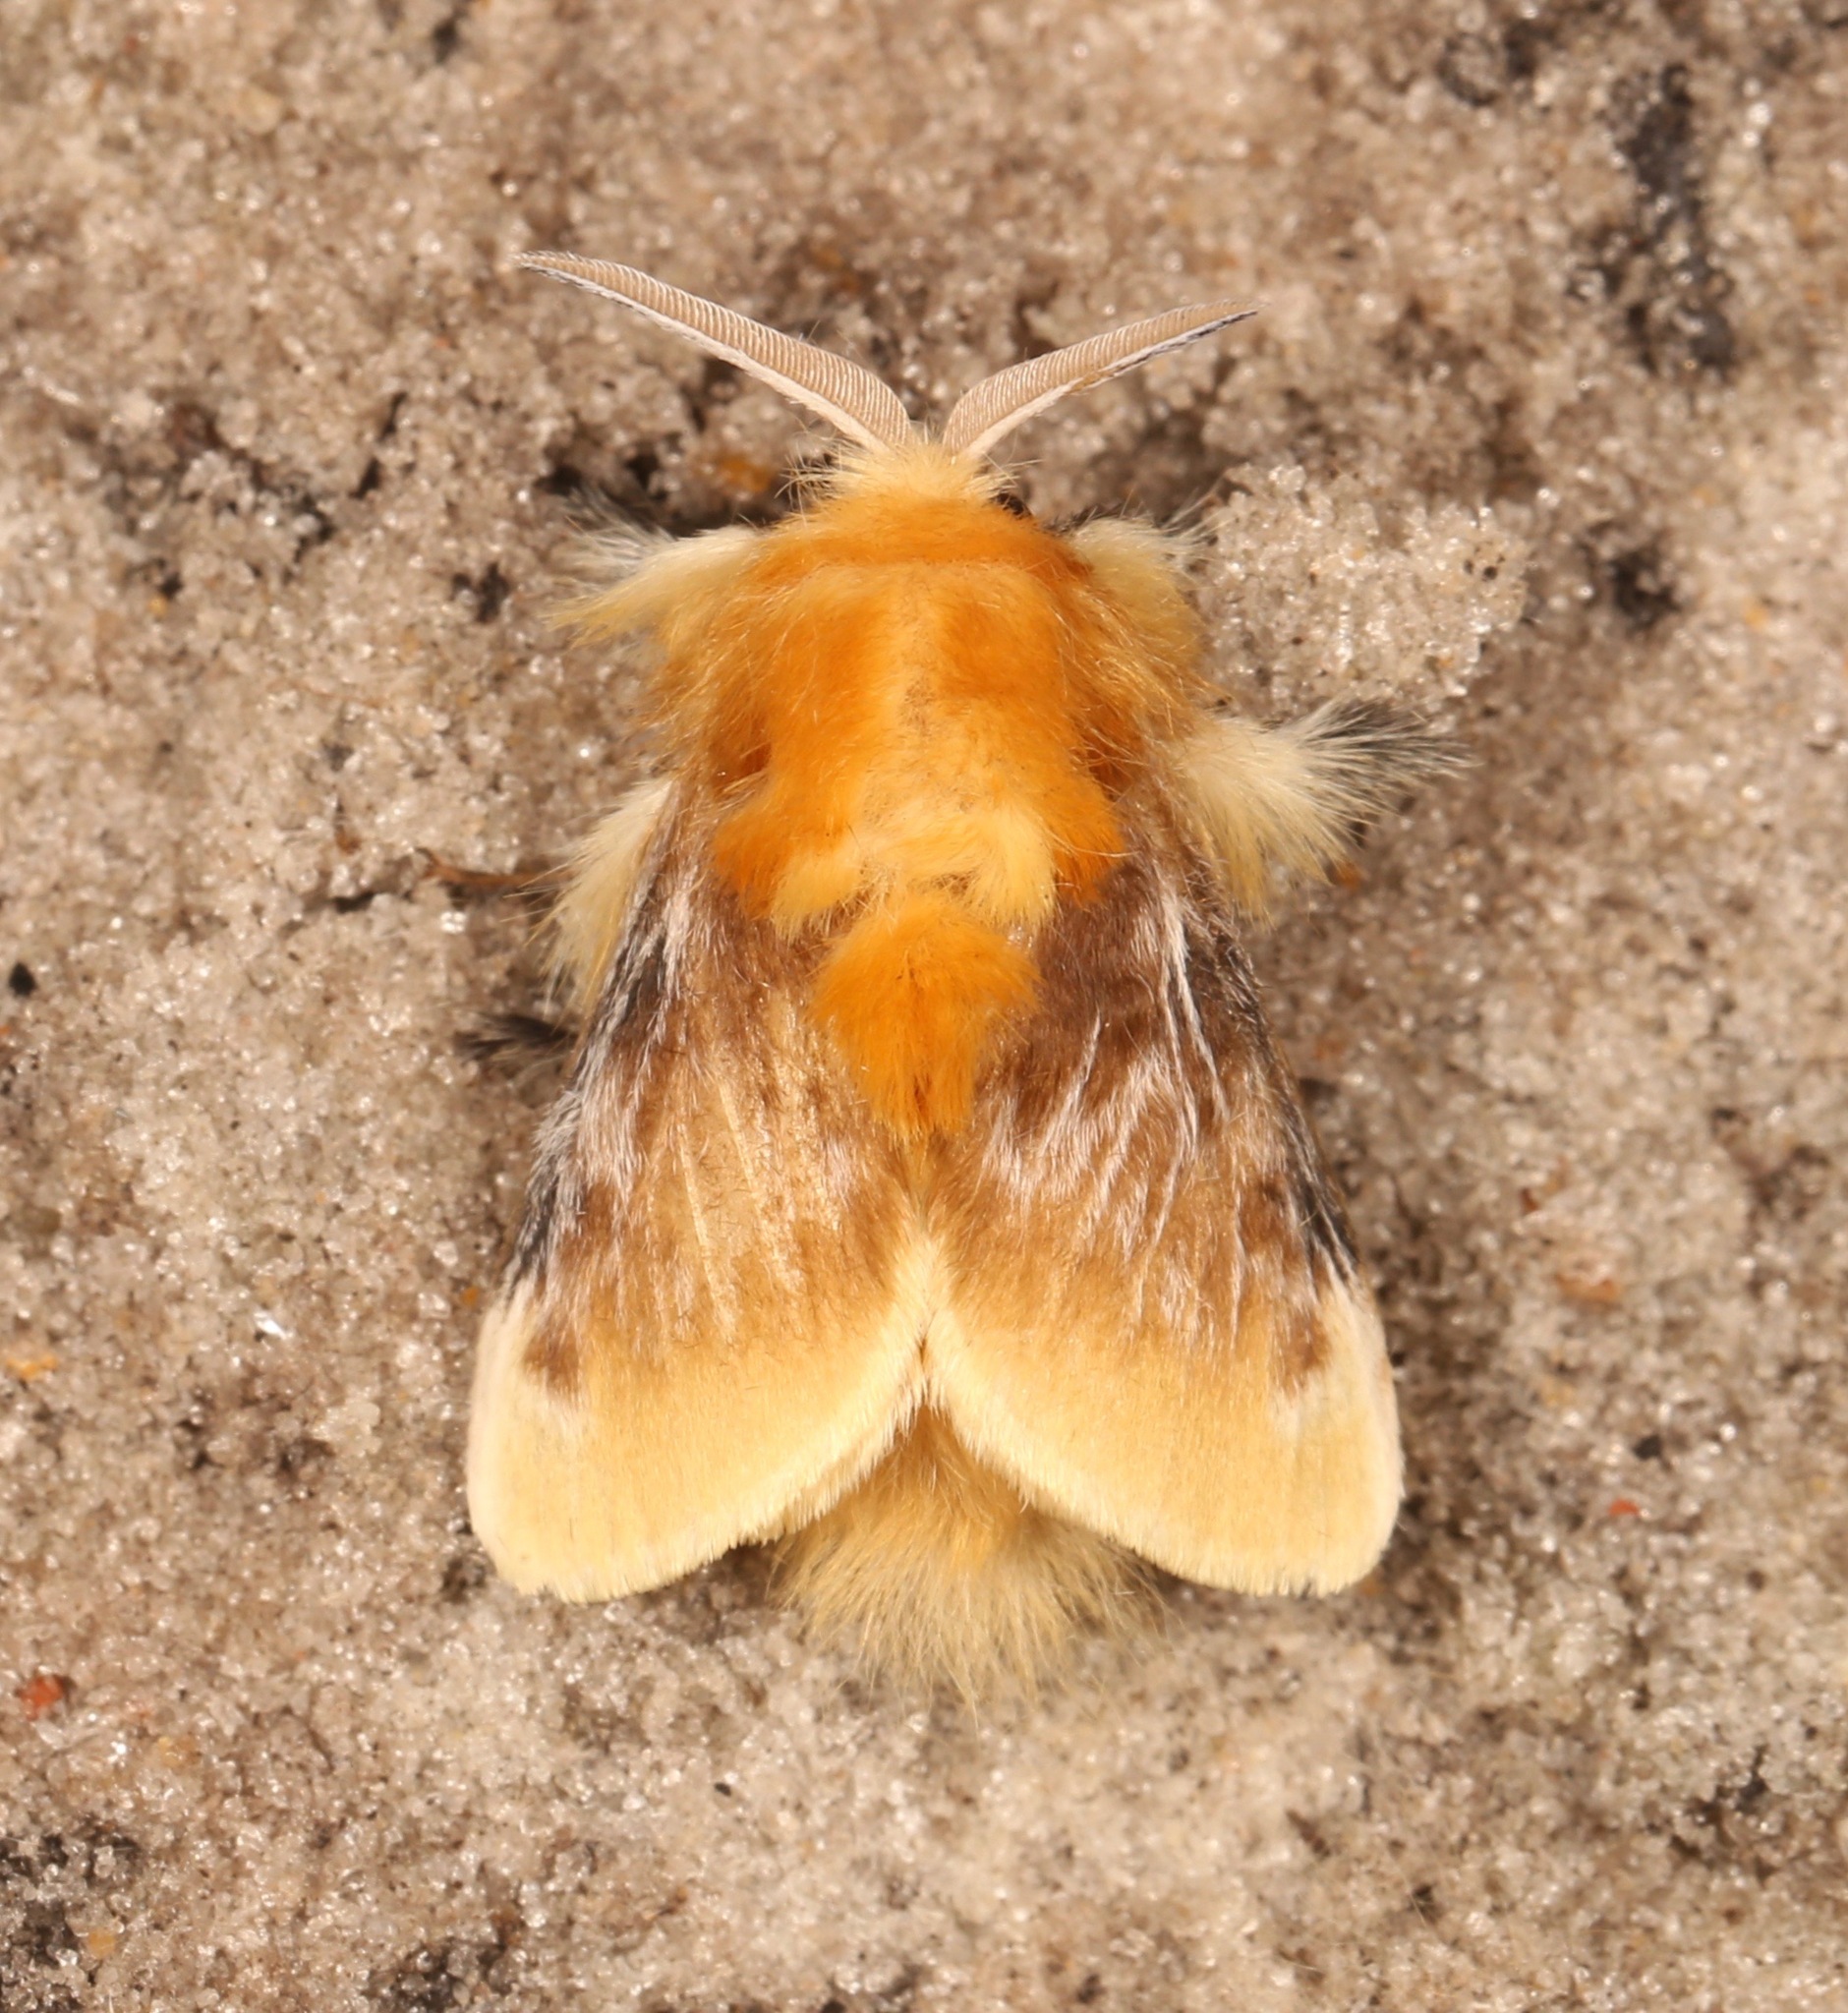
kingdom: Animalia
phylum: Arthropoda
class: Insecta
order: Lepidoptera
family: Megalopygidae
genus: Megalopyge
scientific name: Megalopyge opercularis
